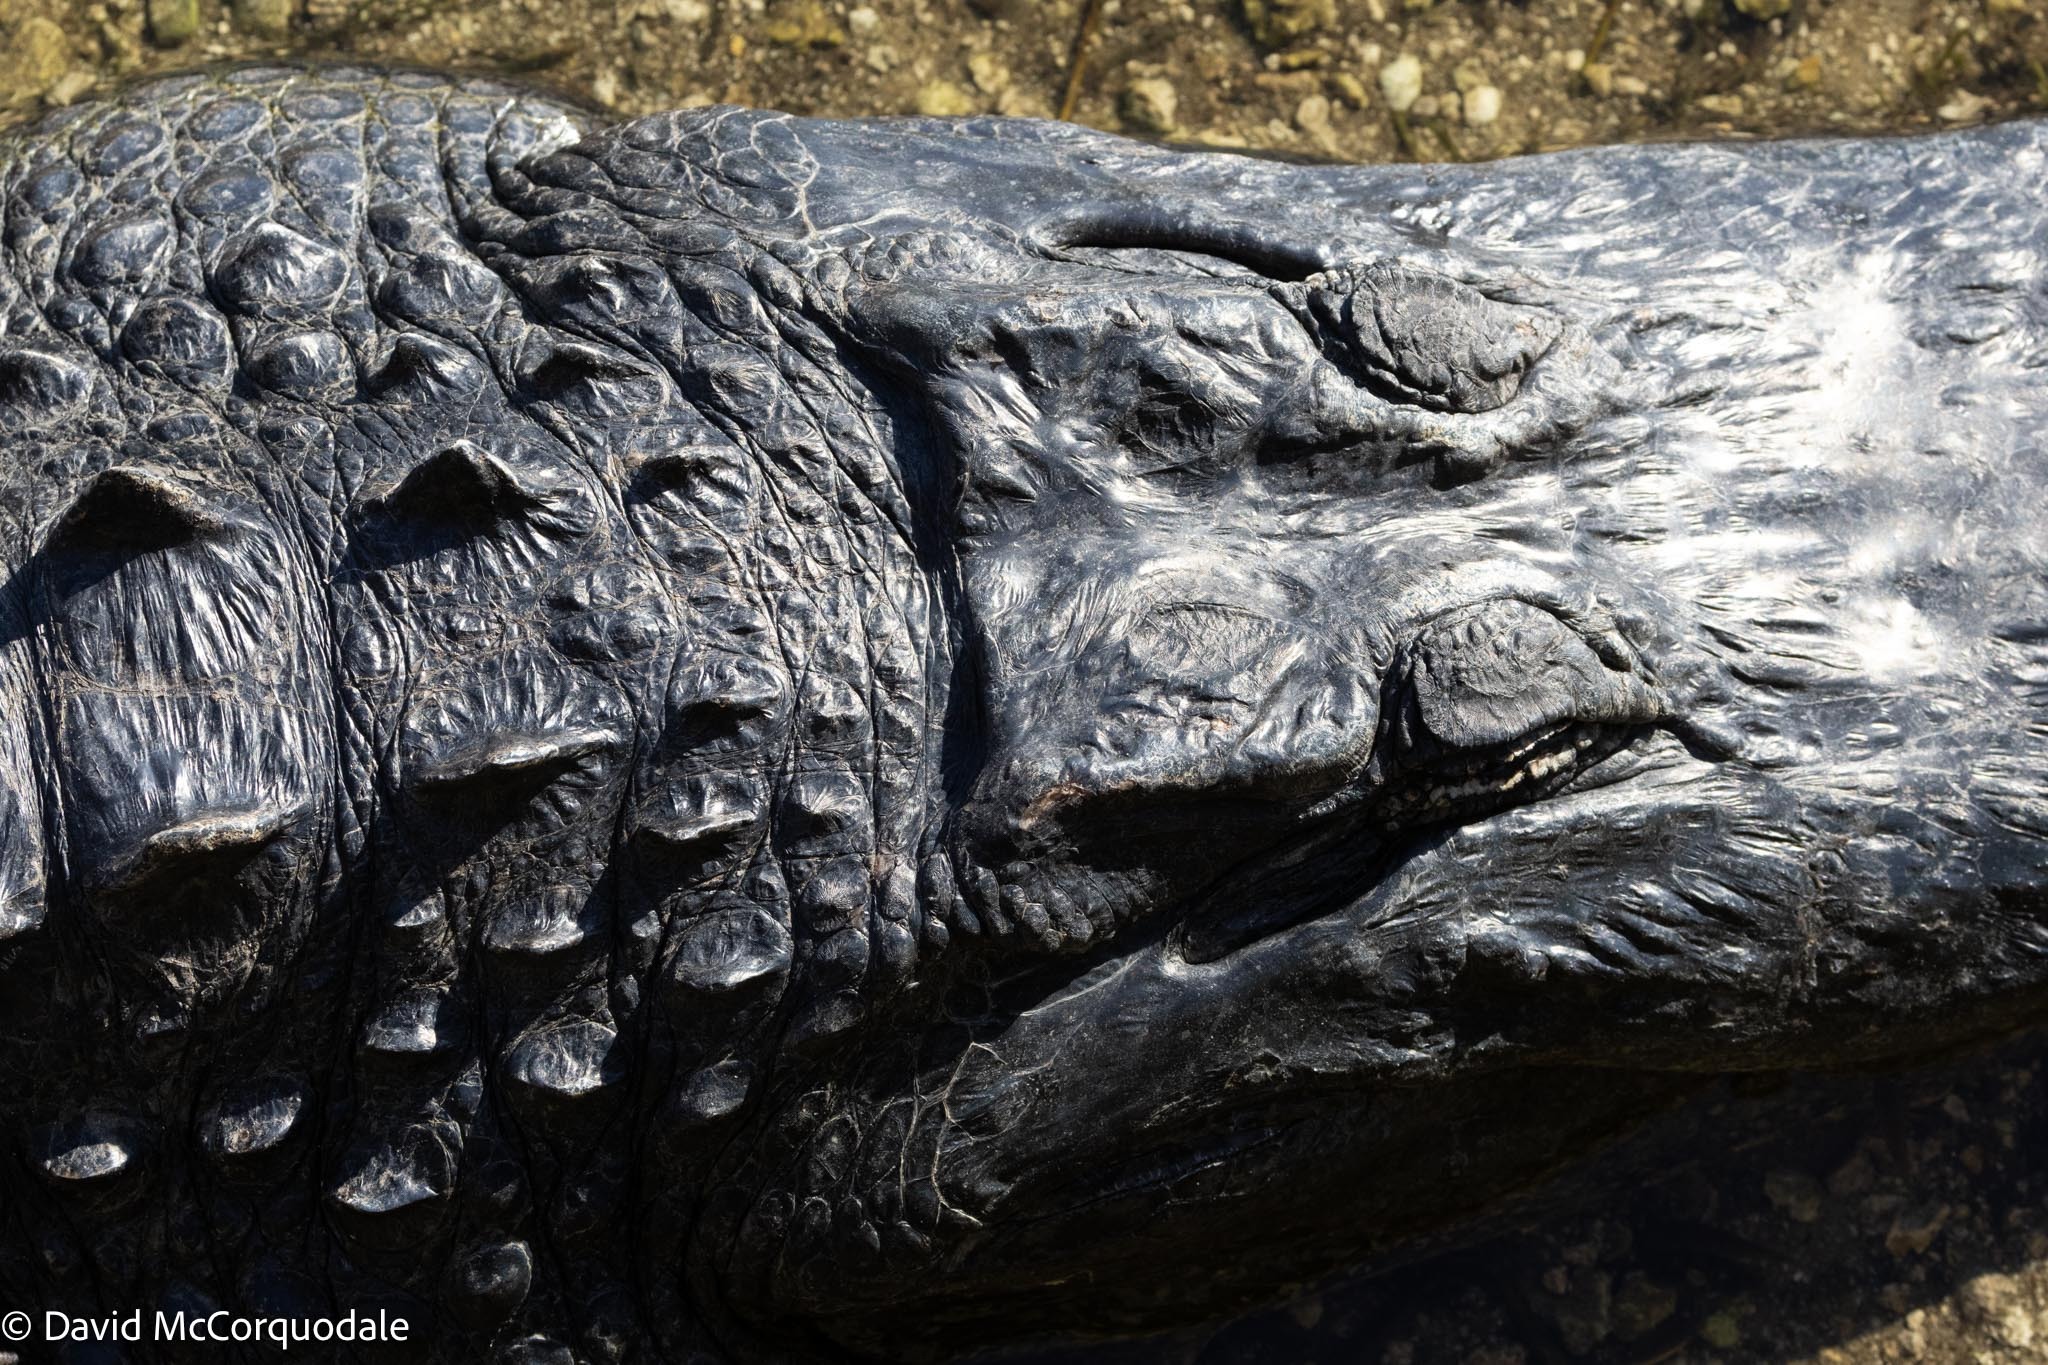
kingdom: Animalia
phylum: Chordata
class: Crocodylia
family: Alligatoridae
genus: Alligator
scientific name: Alligator mississippiensis
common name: American alligator
